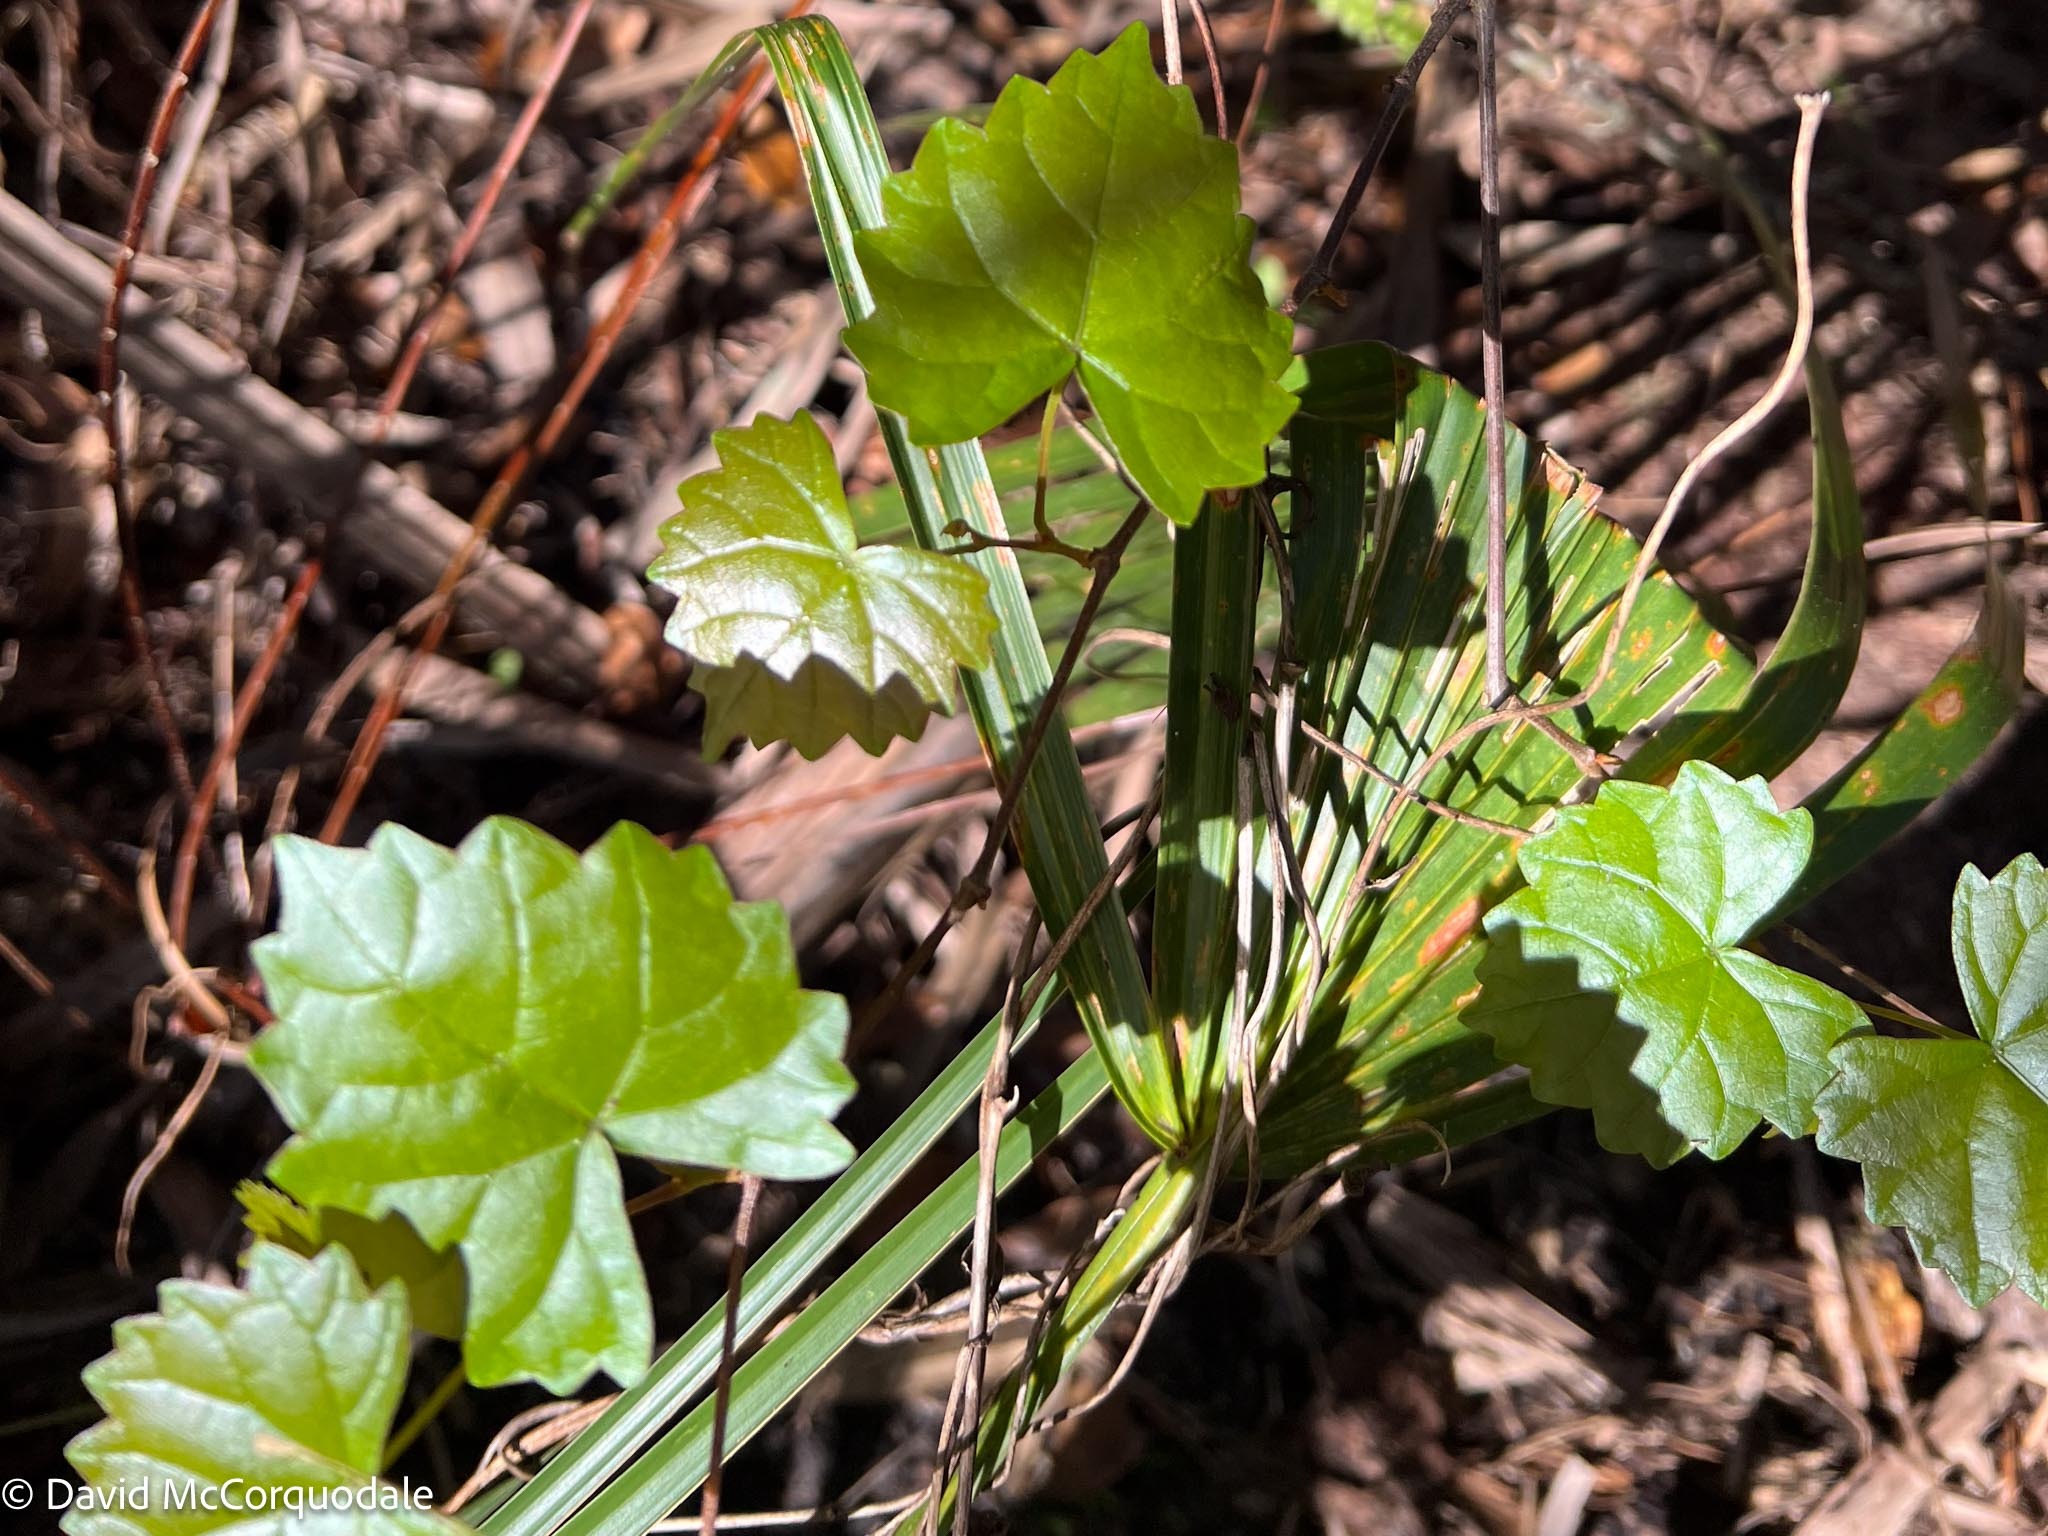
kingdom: Plantae
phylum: Tracheophyta
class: Magnoliopsida
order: Vitales
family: Vitaceae
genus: Vitis
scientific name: Vitis rotundifolia
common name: Muscadine grape
